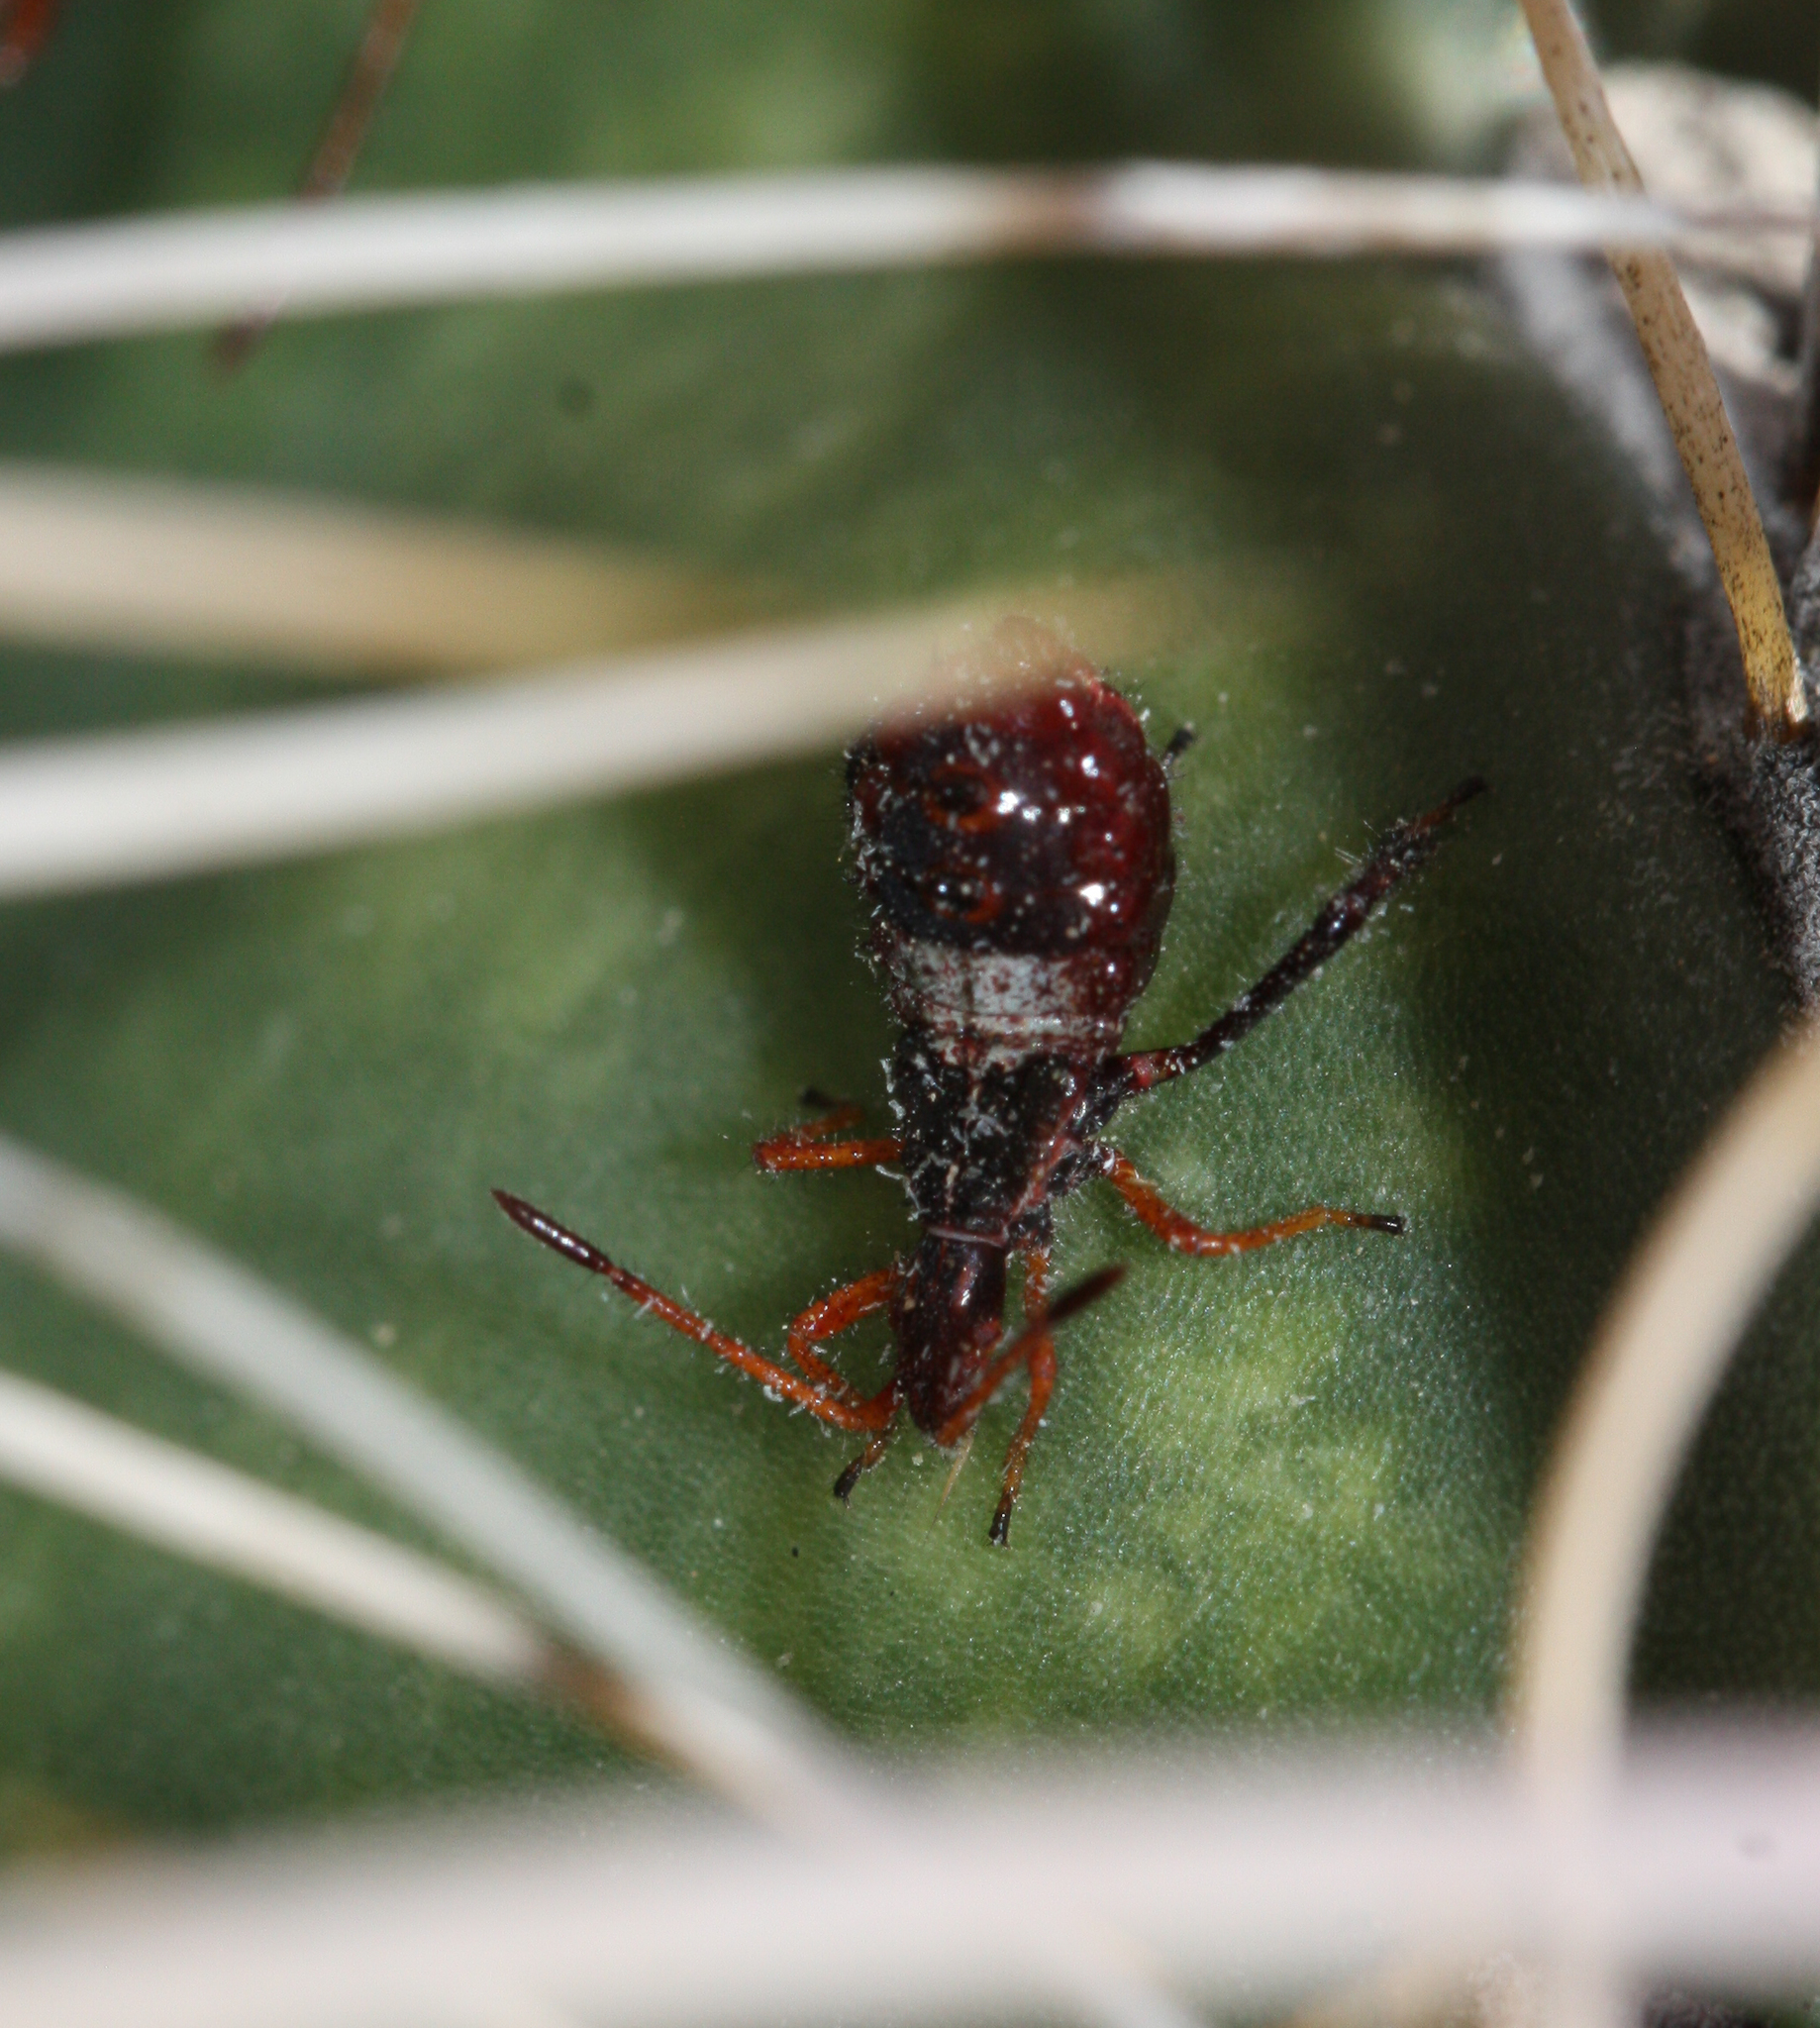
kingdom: Animalia
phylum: Arthropoda
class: Insecta
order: Hemiptera
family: Coreidae
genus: Narnia
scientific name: Narnia wilsoni
